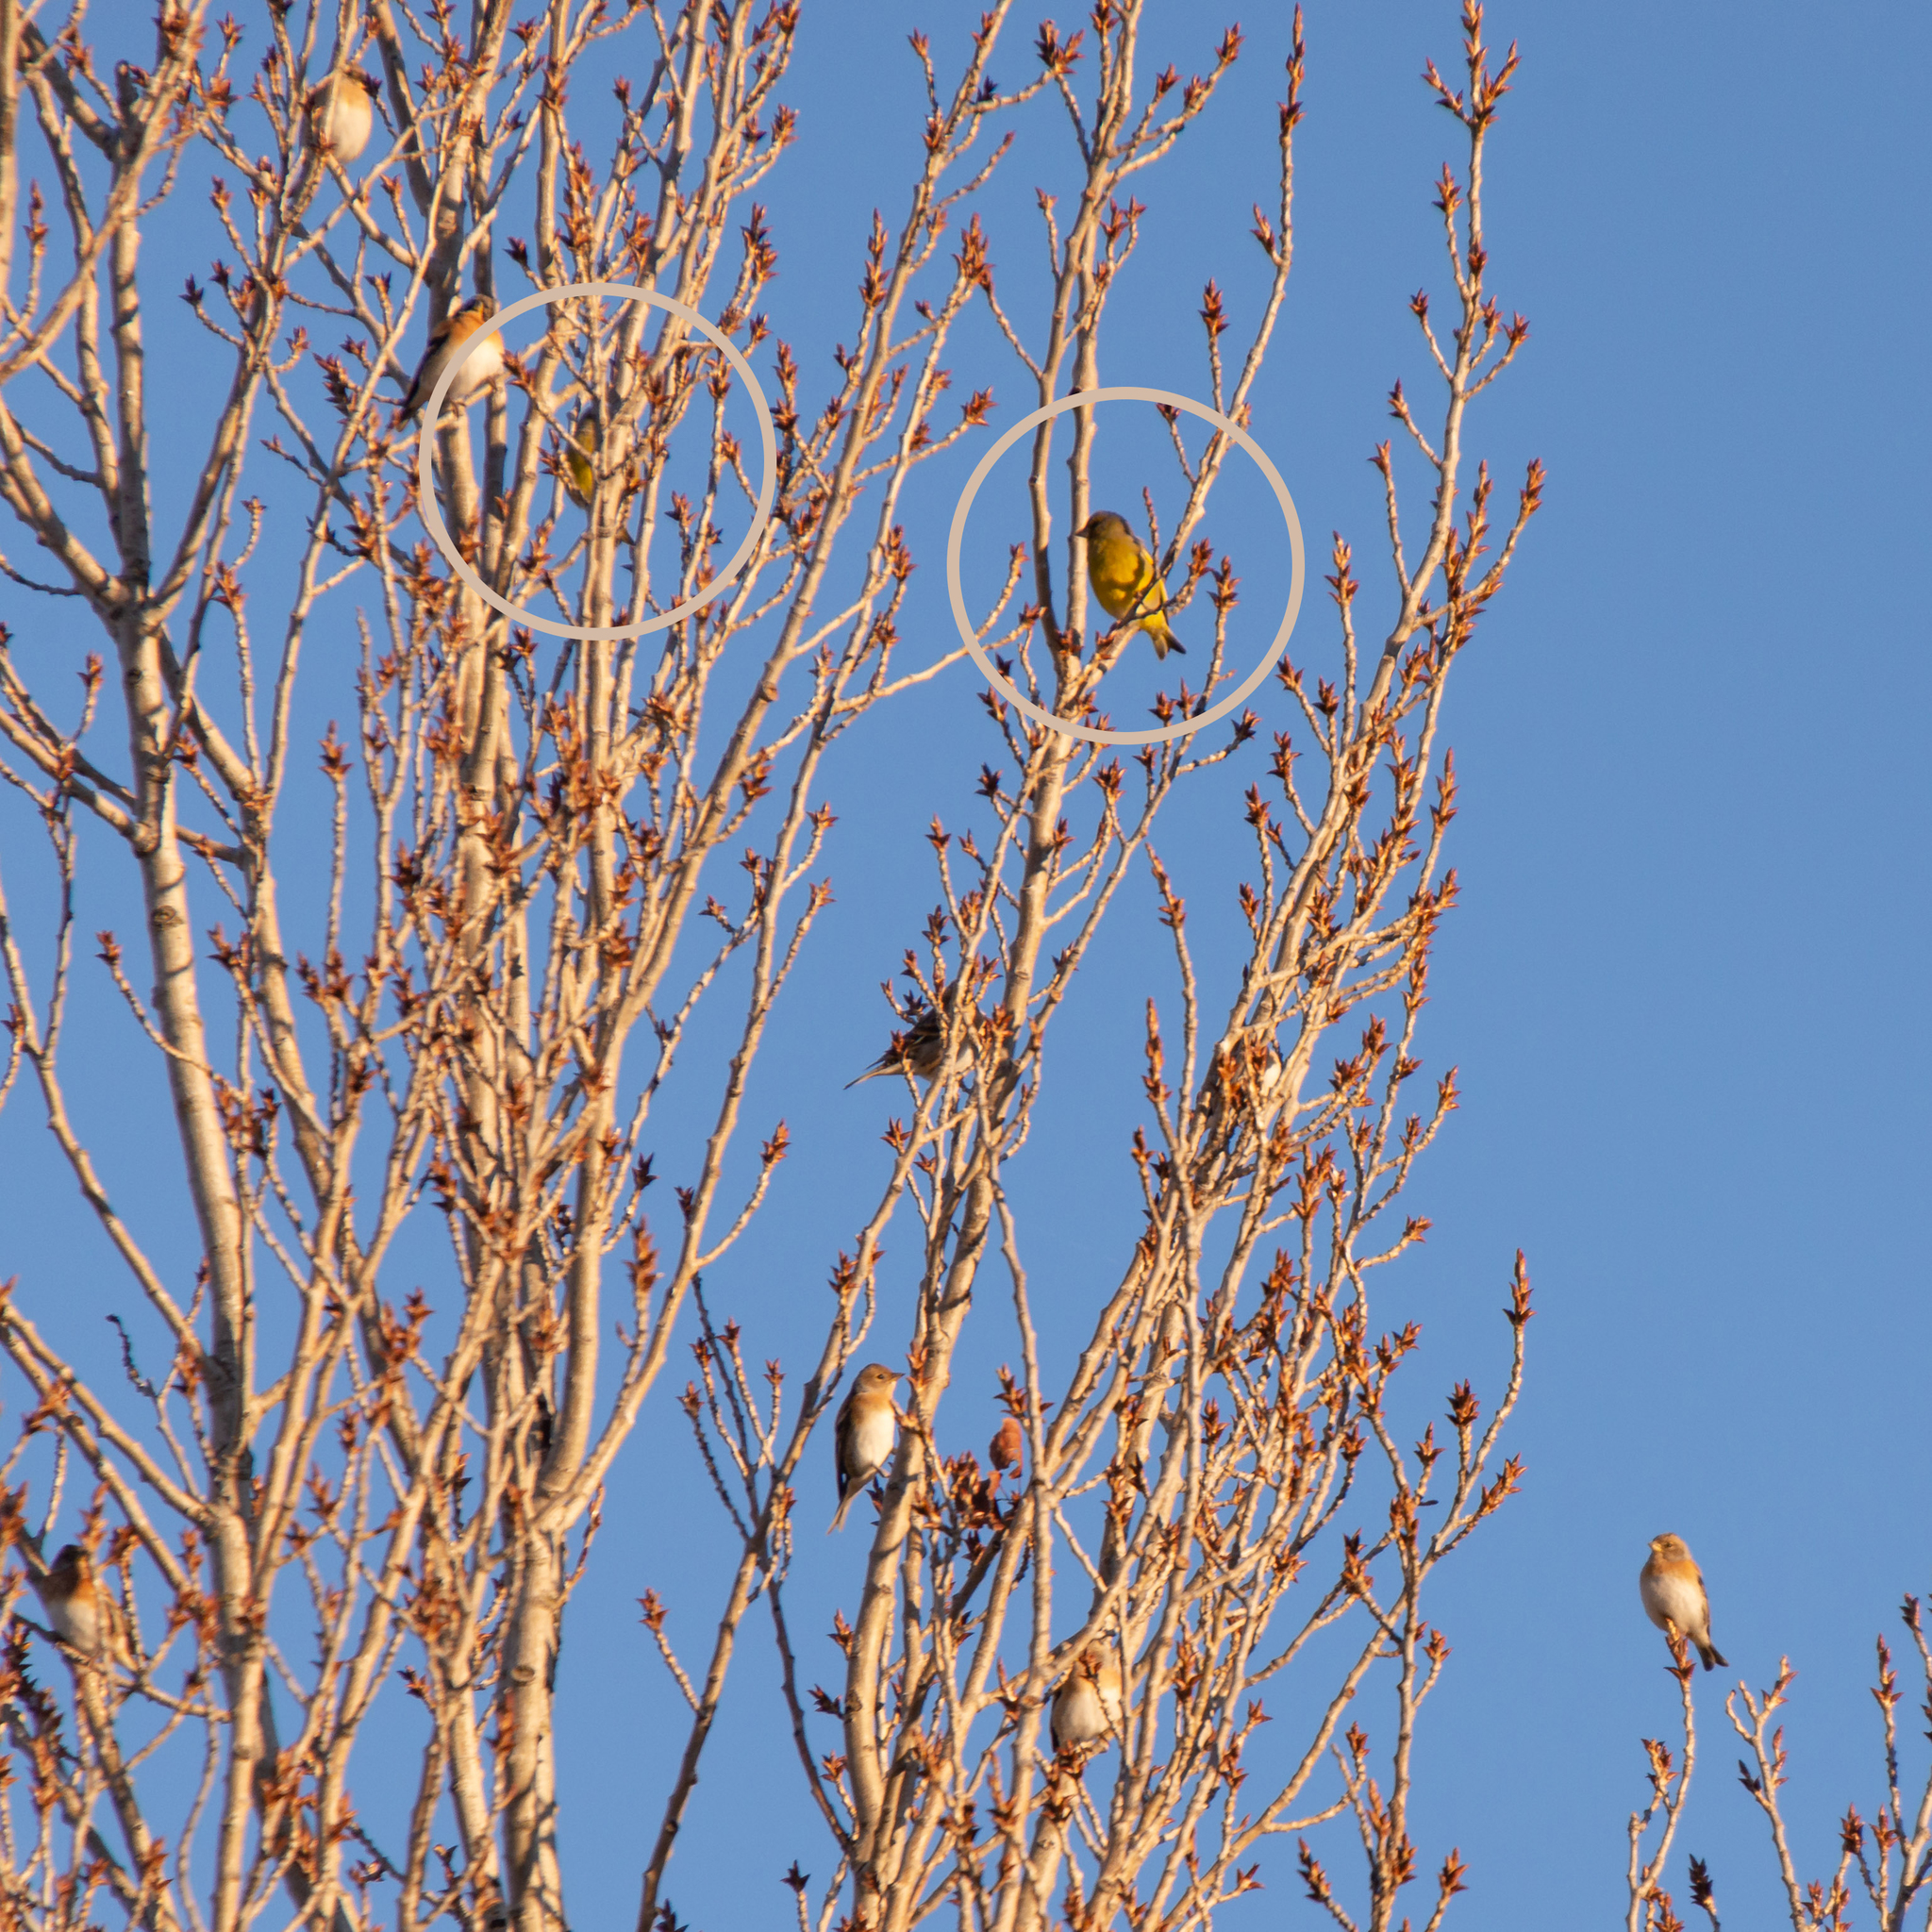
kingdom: Plantae
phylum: Tracheophyta
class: Liliopsida
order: Poales
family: Poaceae
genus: Chloris
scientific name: Chloris chloris
